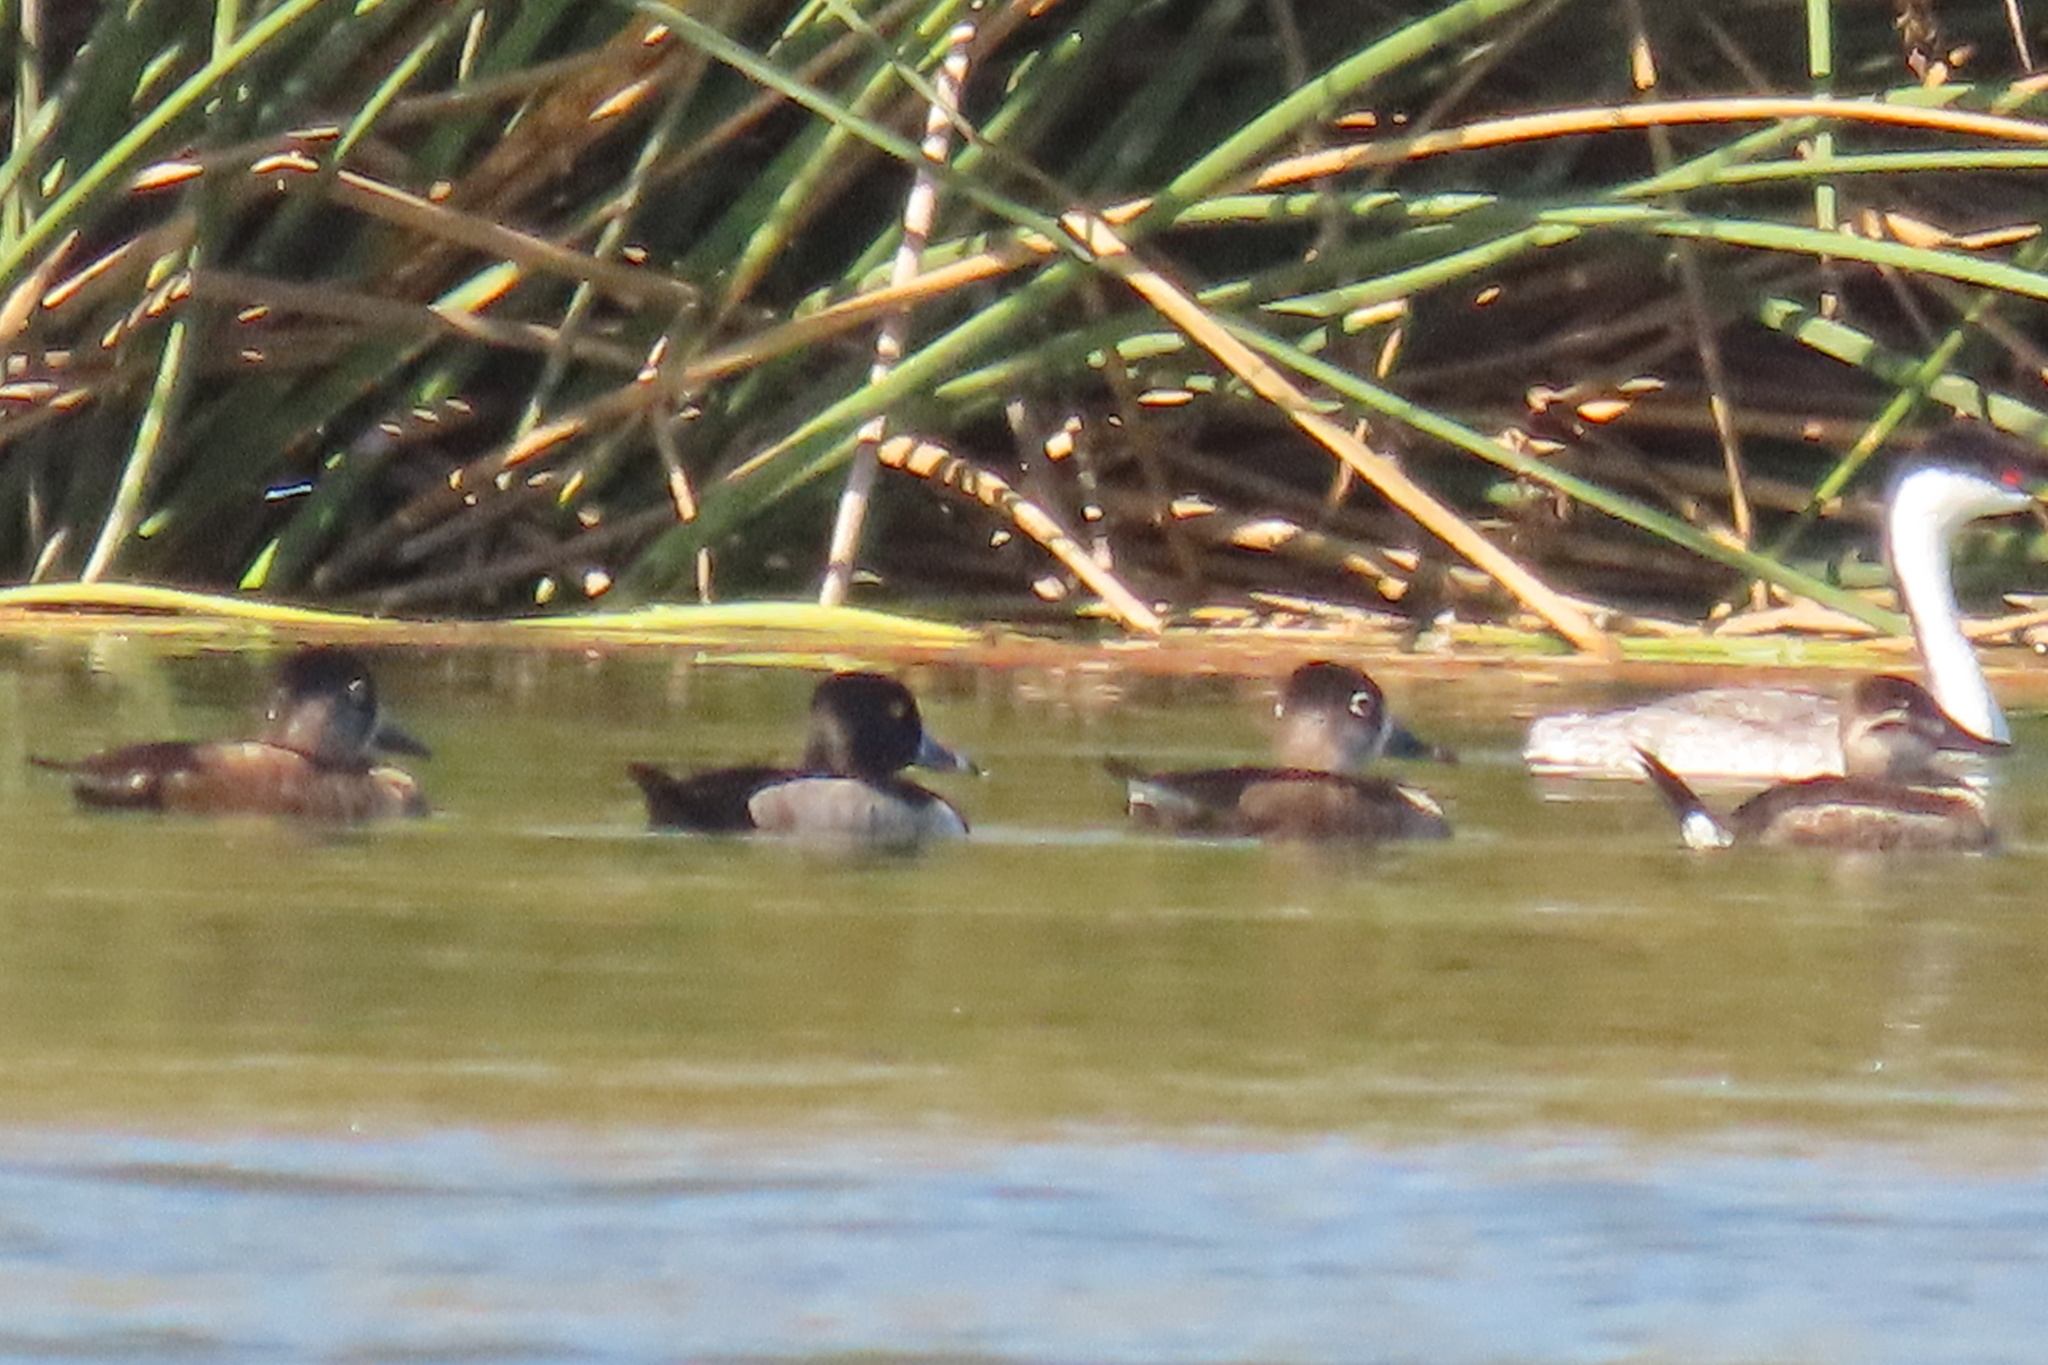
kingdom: Animalia
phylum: Chordata
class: Aves
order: Anseriformes
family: Anatidae
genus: Aythya
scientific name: Aythya collaris
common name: Ring-necked duck
